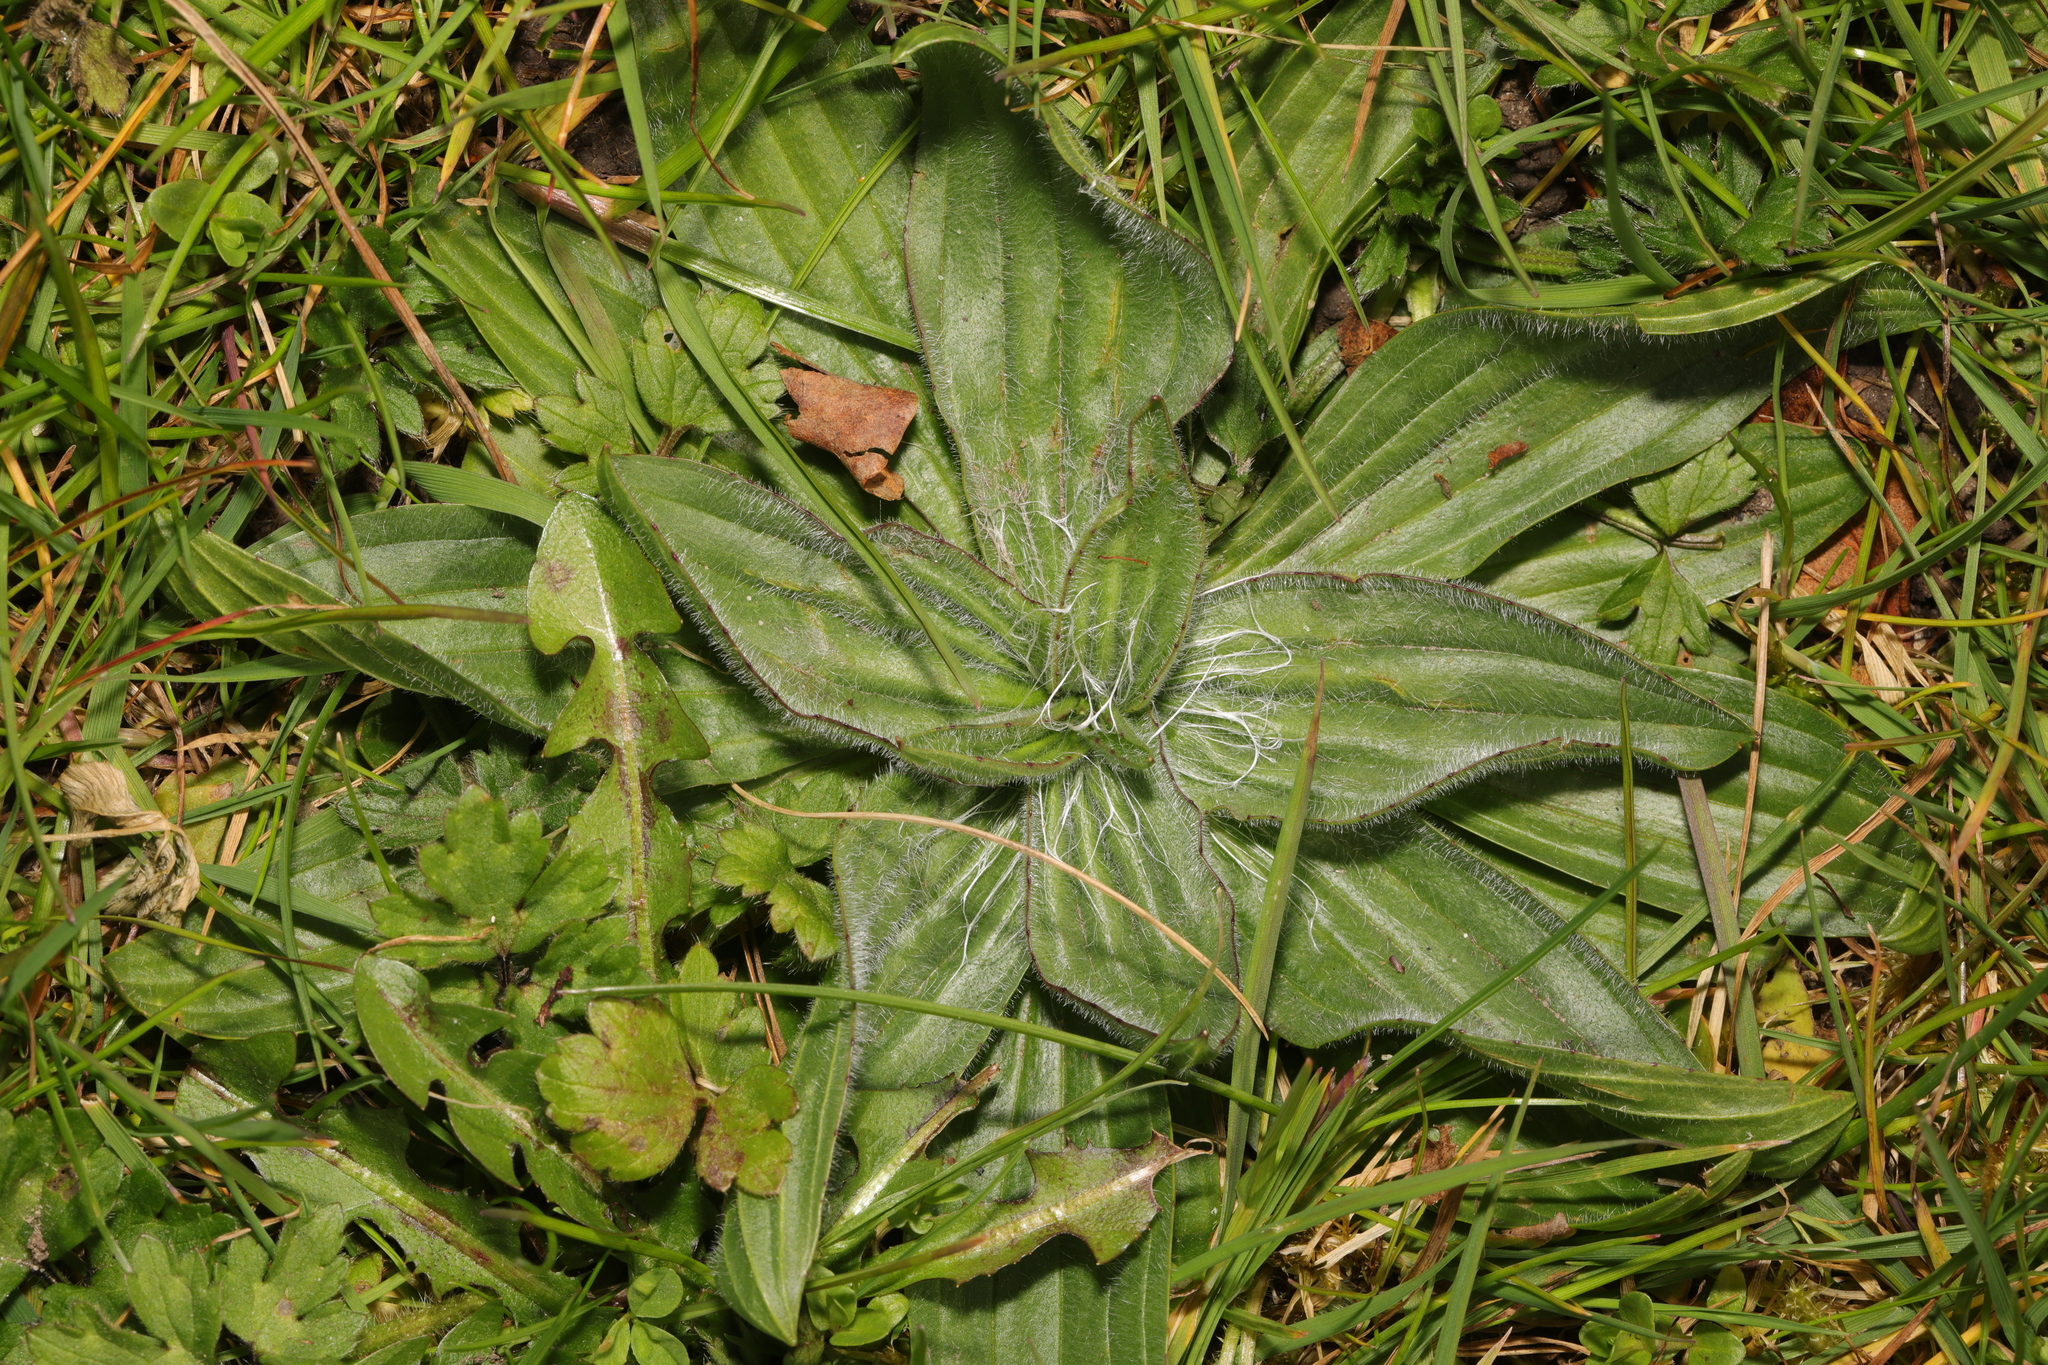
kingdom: Plantae
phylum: Tracheophyta
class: Magnoliopsida
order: Lamiales
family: Plantaginaceae
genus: Plantago
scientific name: Plantago media
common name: Hoary plantain
